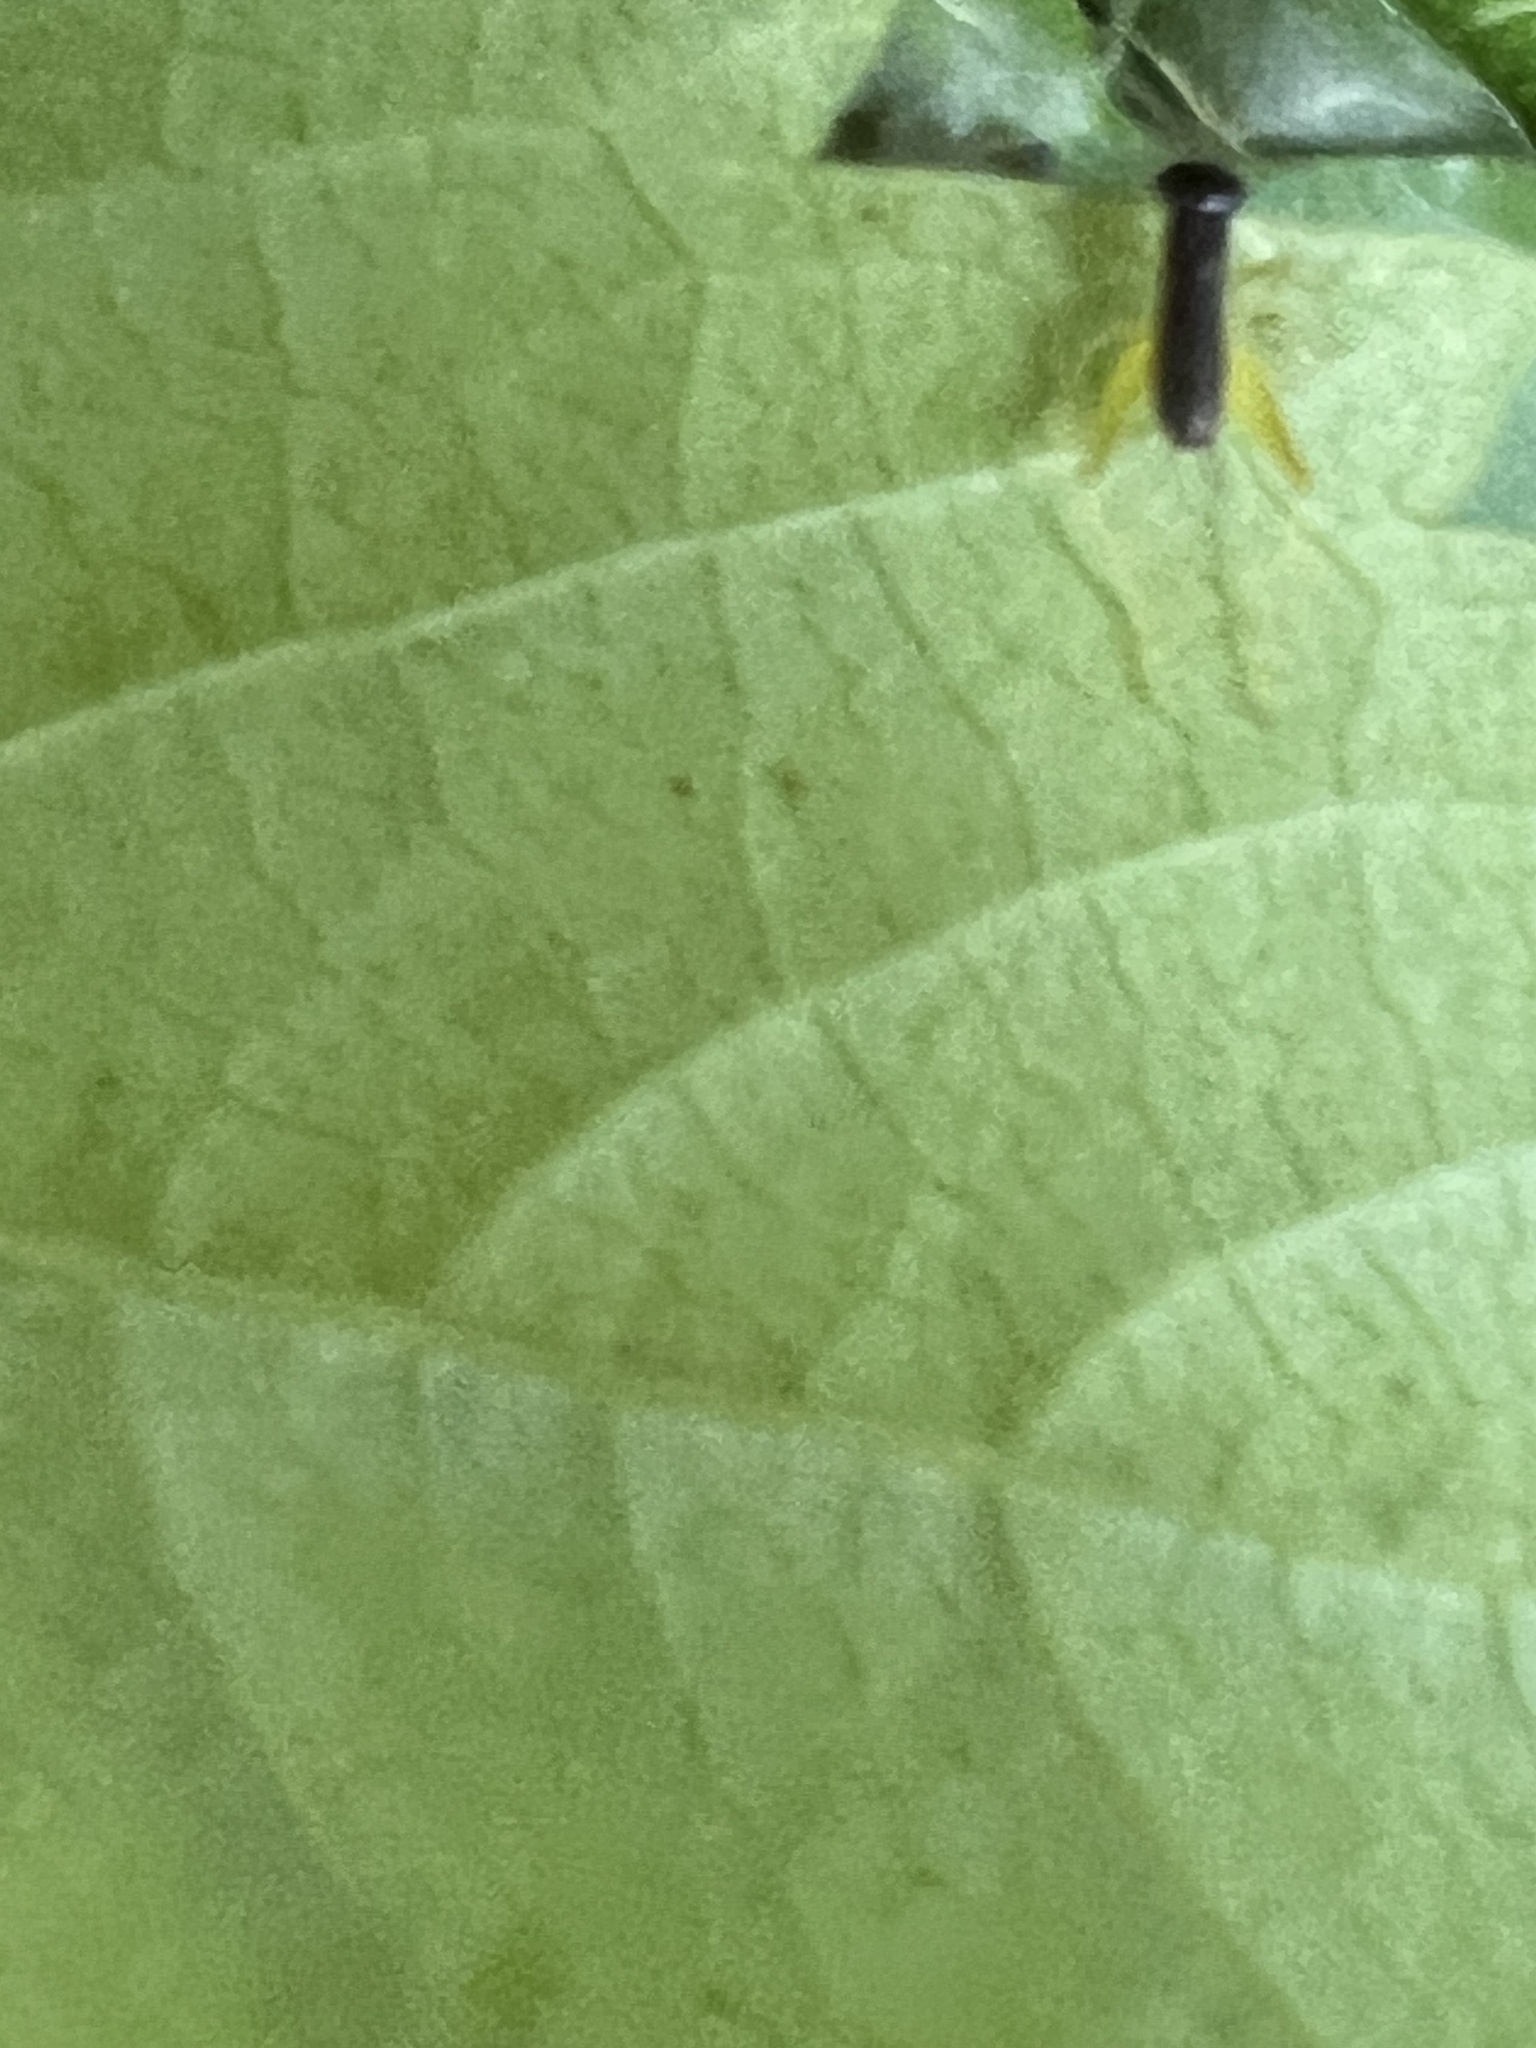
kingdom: Animalia
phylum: Arthropoda
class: Insecta
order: Orthoptera
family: Trigonidiidae
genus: Phyllopalpus
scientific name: Phyllopalpus pulchellus
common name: Handsome trig
